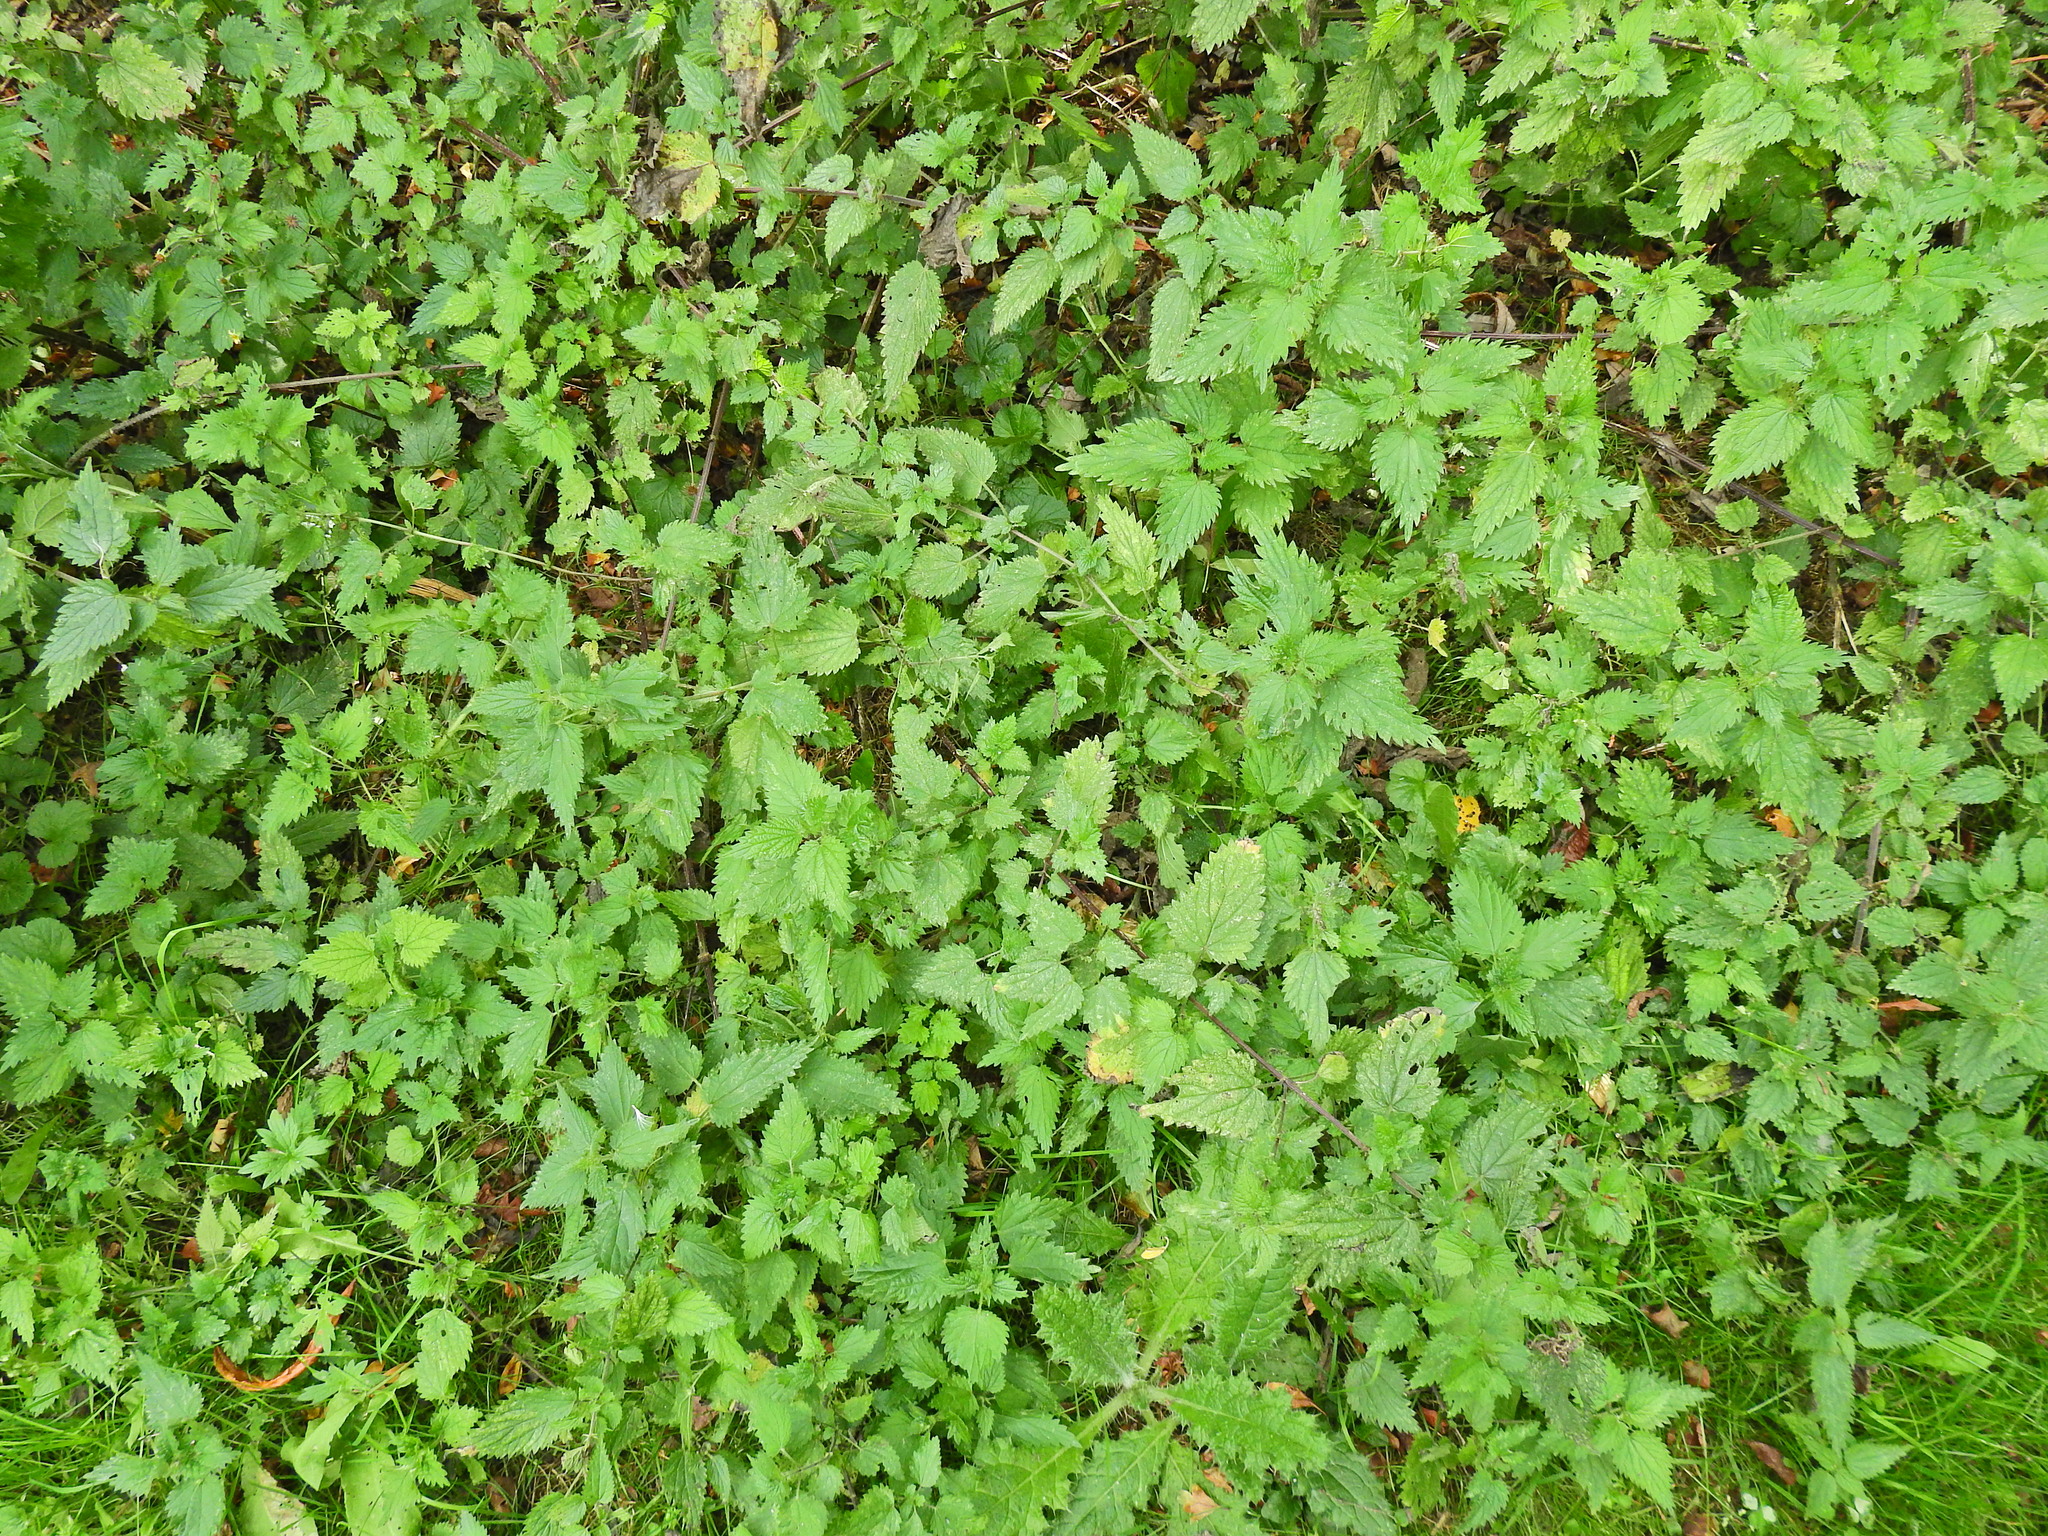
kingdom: Plantae
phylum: Tracheophyta
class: Magnoliopsida
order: Rosales
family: Urticaceae
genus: Urtica
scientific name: Urtica dioica
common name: Common nettle
